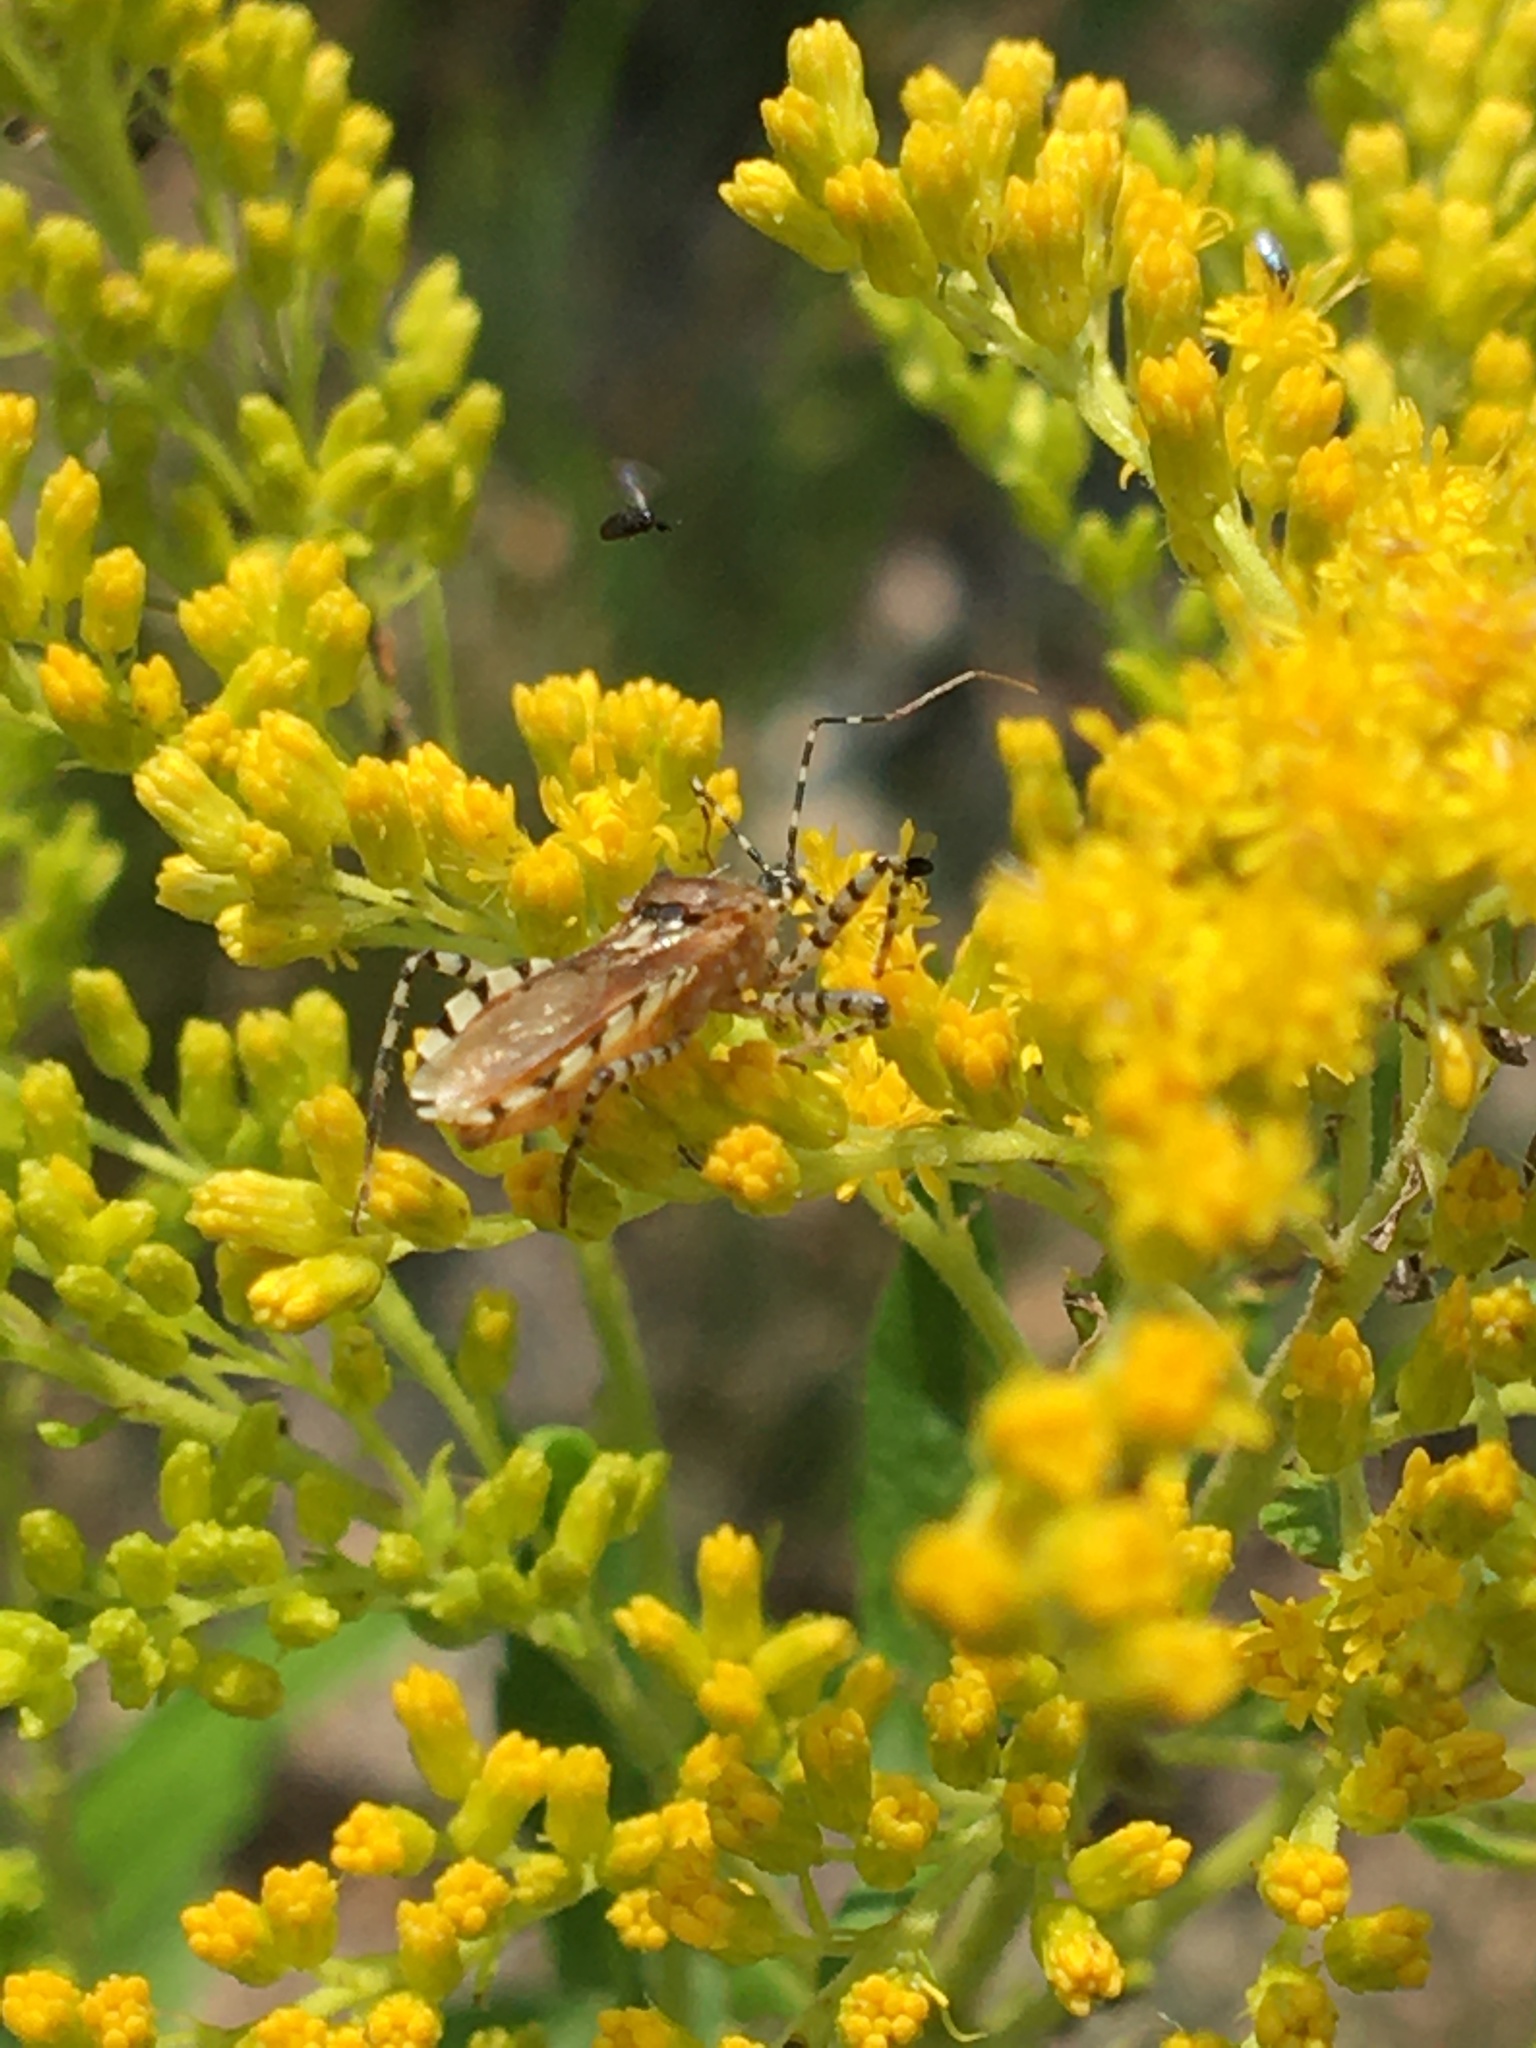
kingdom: Animalia
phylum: Arthropoda
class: Insecta
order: Hemiptera
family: Reduviidae
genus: Pselliopus
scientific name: Pselliopus cinctus
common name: Ringed assassin bug
